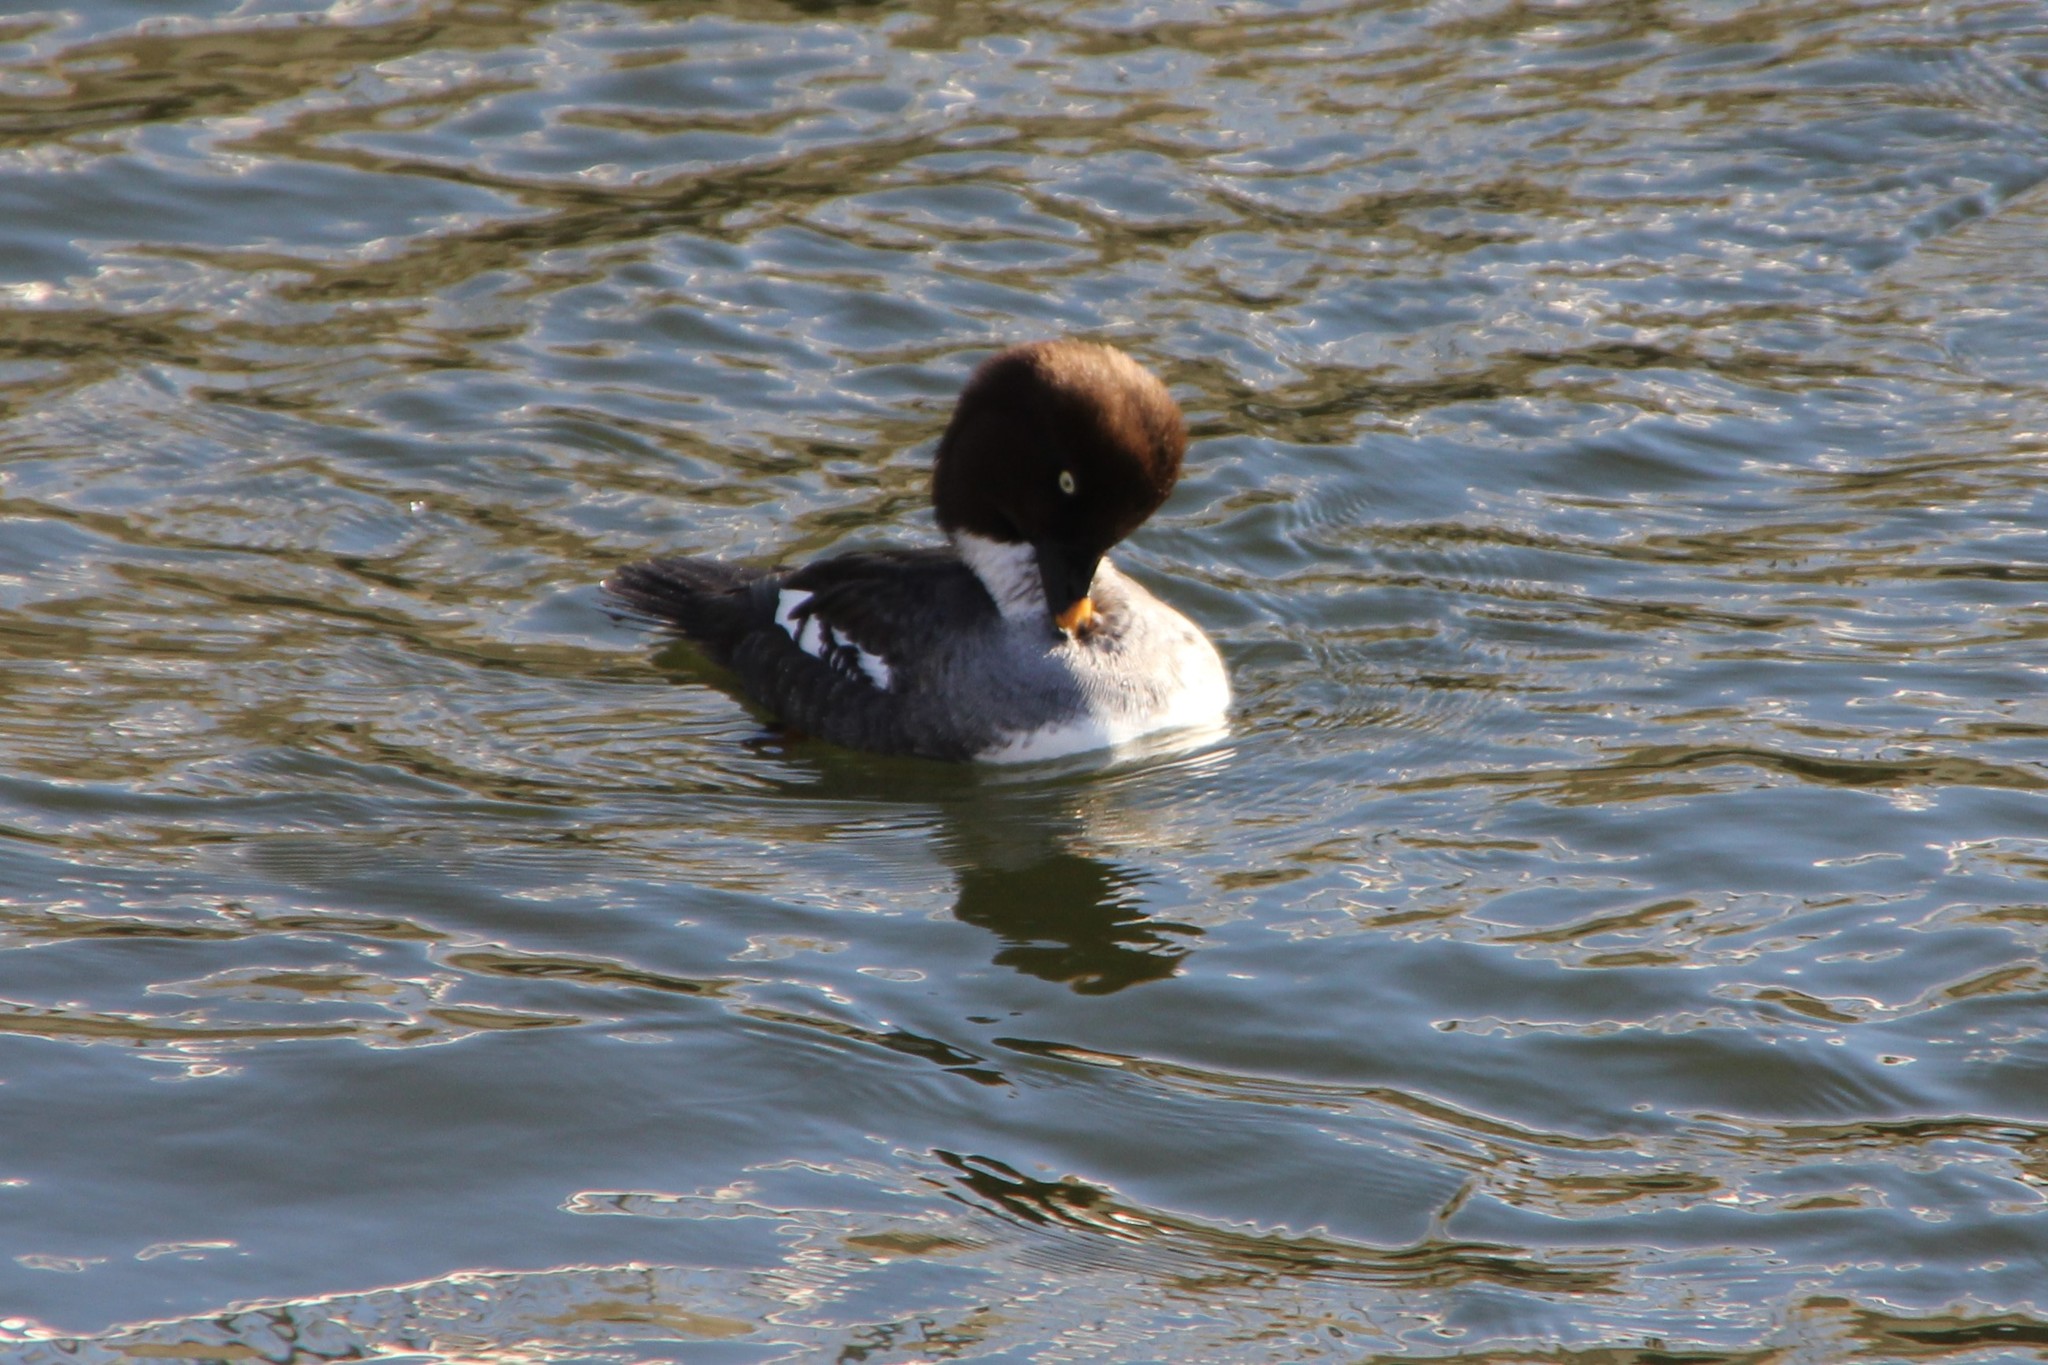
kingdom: Animalia
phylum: Chordata
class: Aves
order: Anseriformes
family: Anatidae
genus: Bucephala
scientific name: Bucephala clangula
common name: Common goldeneye
